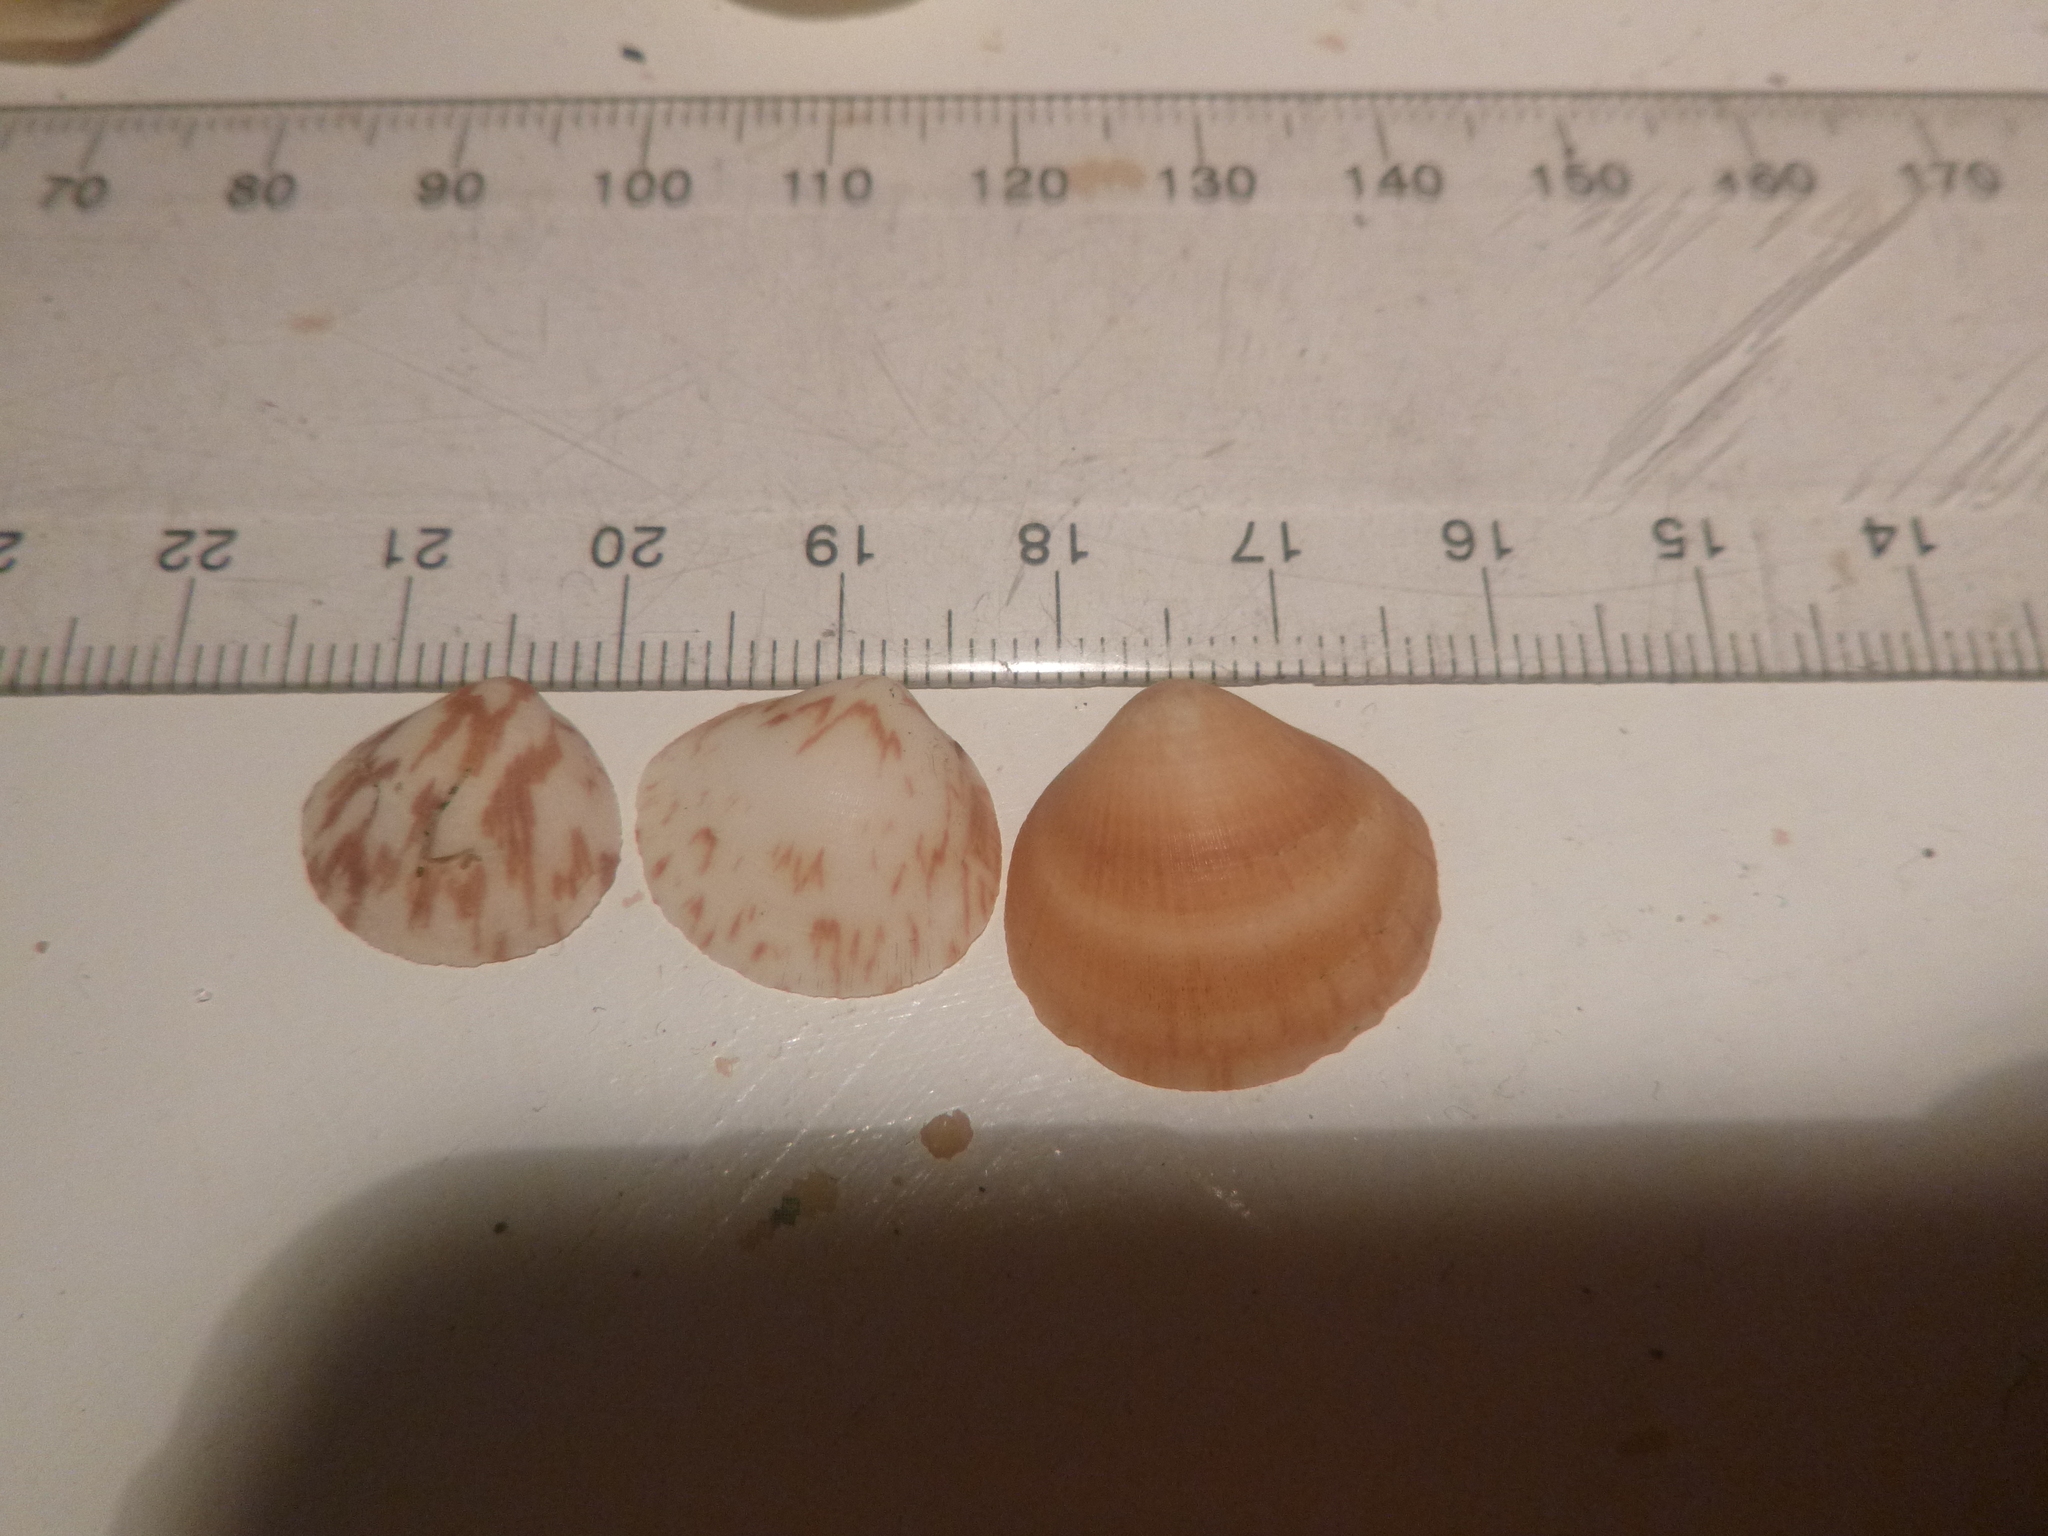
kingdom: Animalia
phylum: Mollusca
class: Bivalvia
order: Arcida
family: Glycymerididae
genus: Glycymeris
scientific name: Glycymeris modesta
